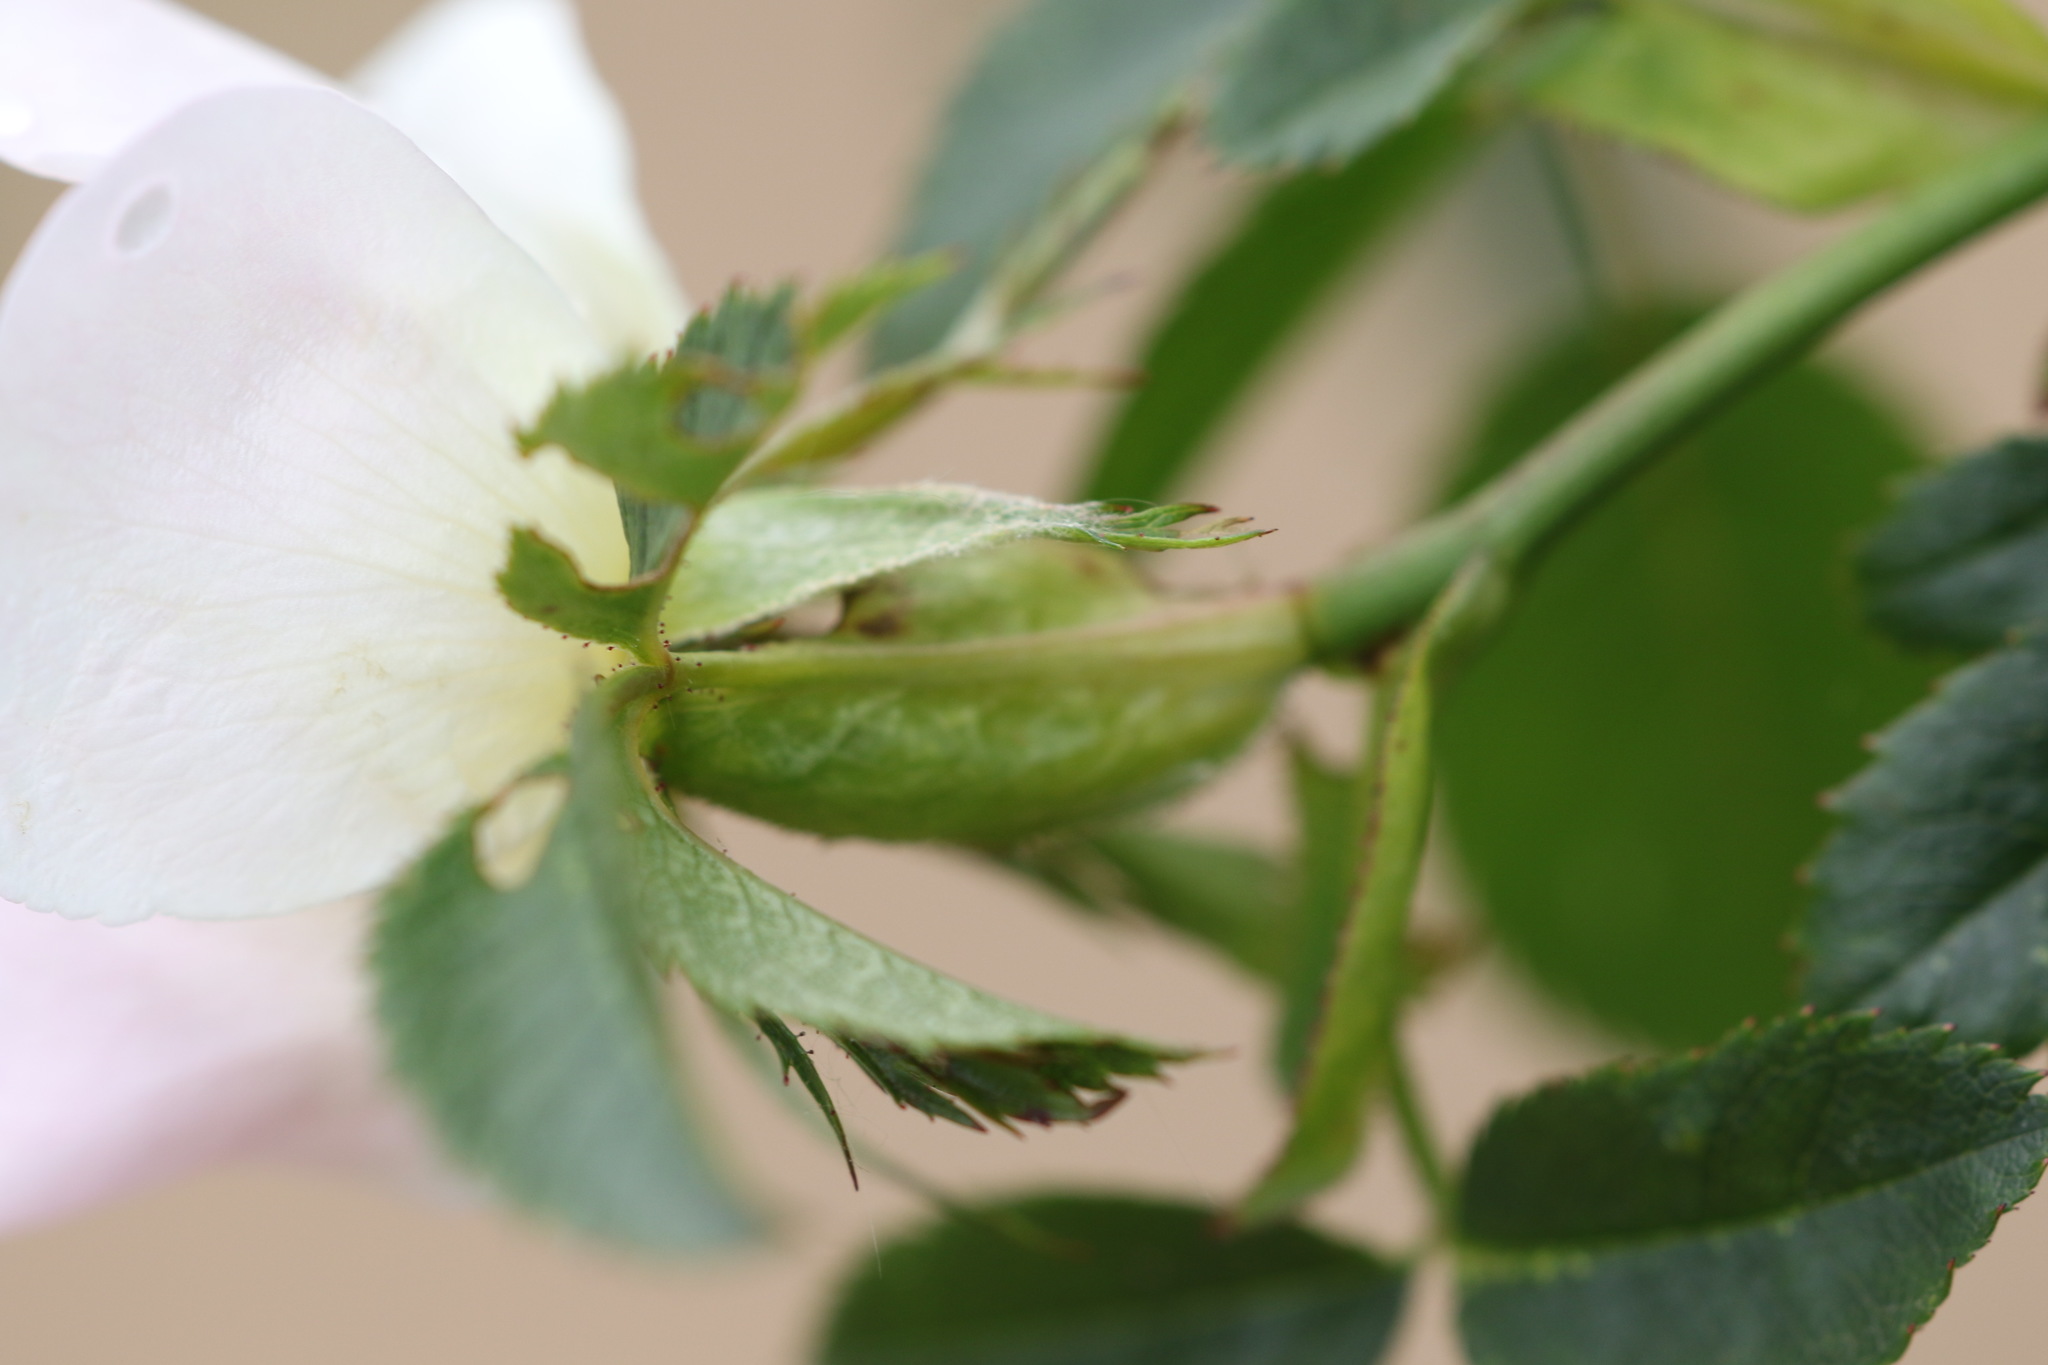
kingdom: Plantae
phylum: Tracheophyta
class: Magnoliopsida
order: Rosales
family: Rosaceae
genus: Rosa
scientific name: Rosa canina
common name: Dog rose
